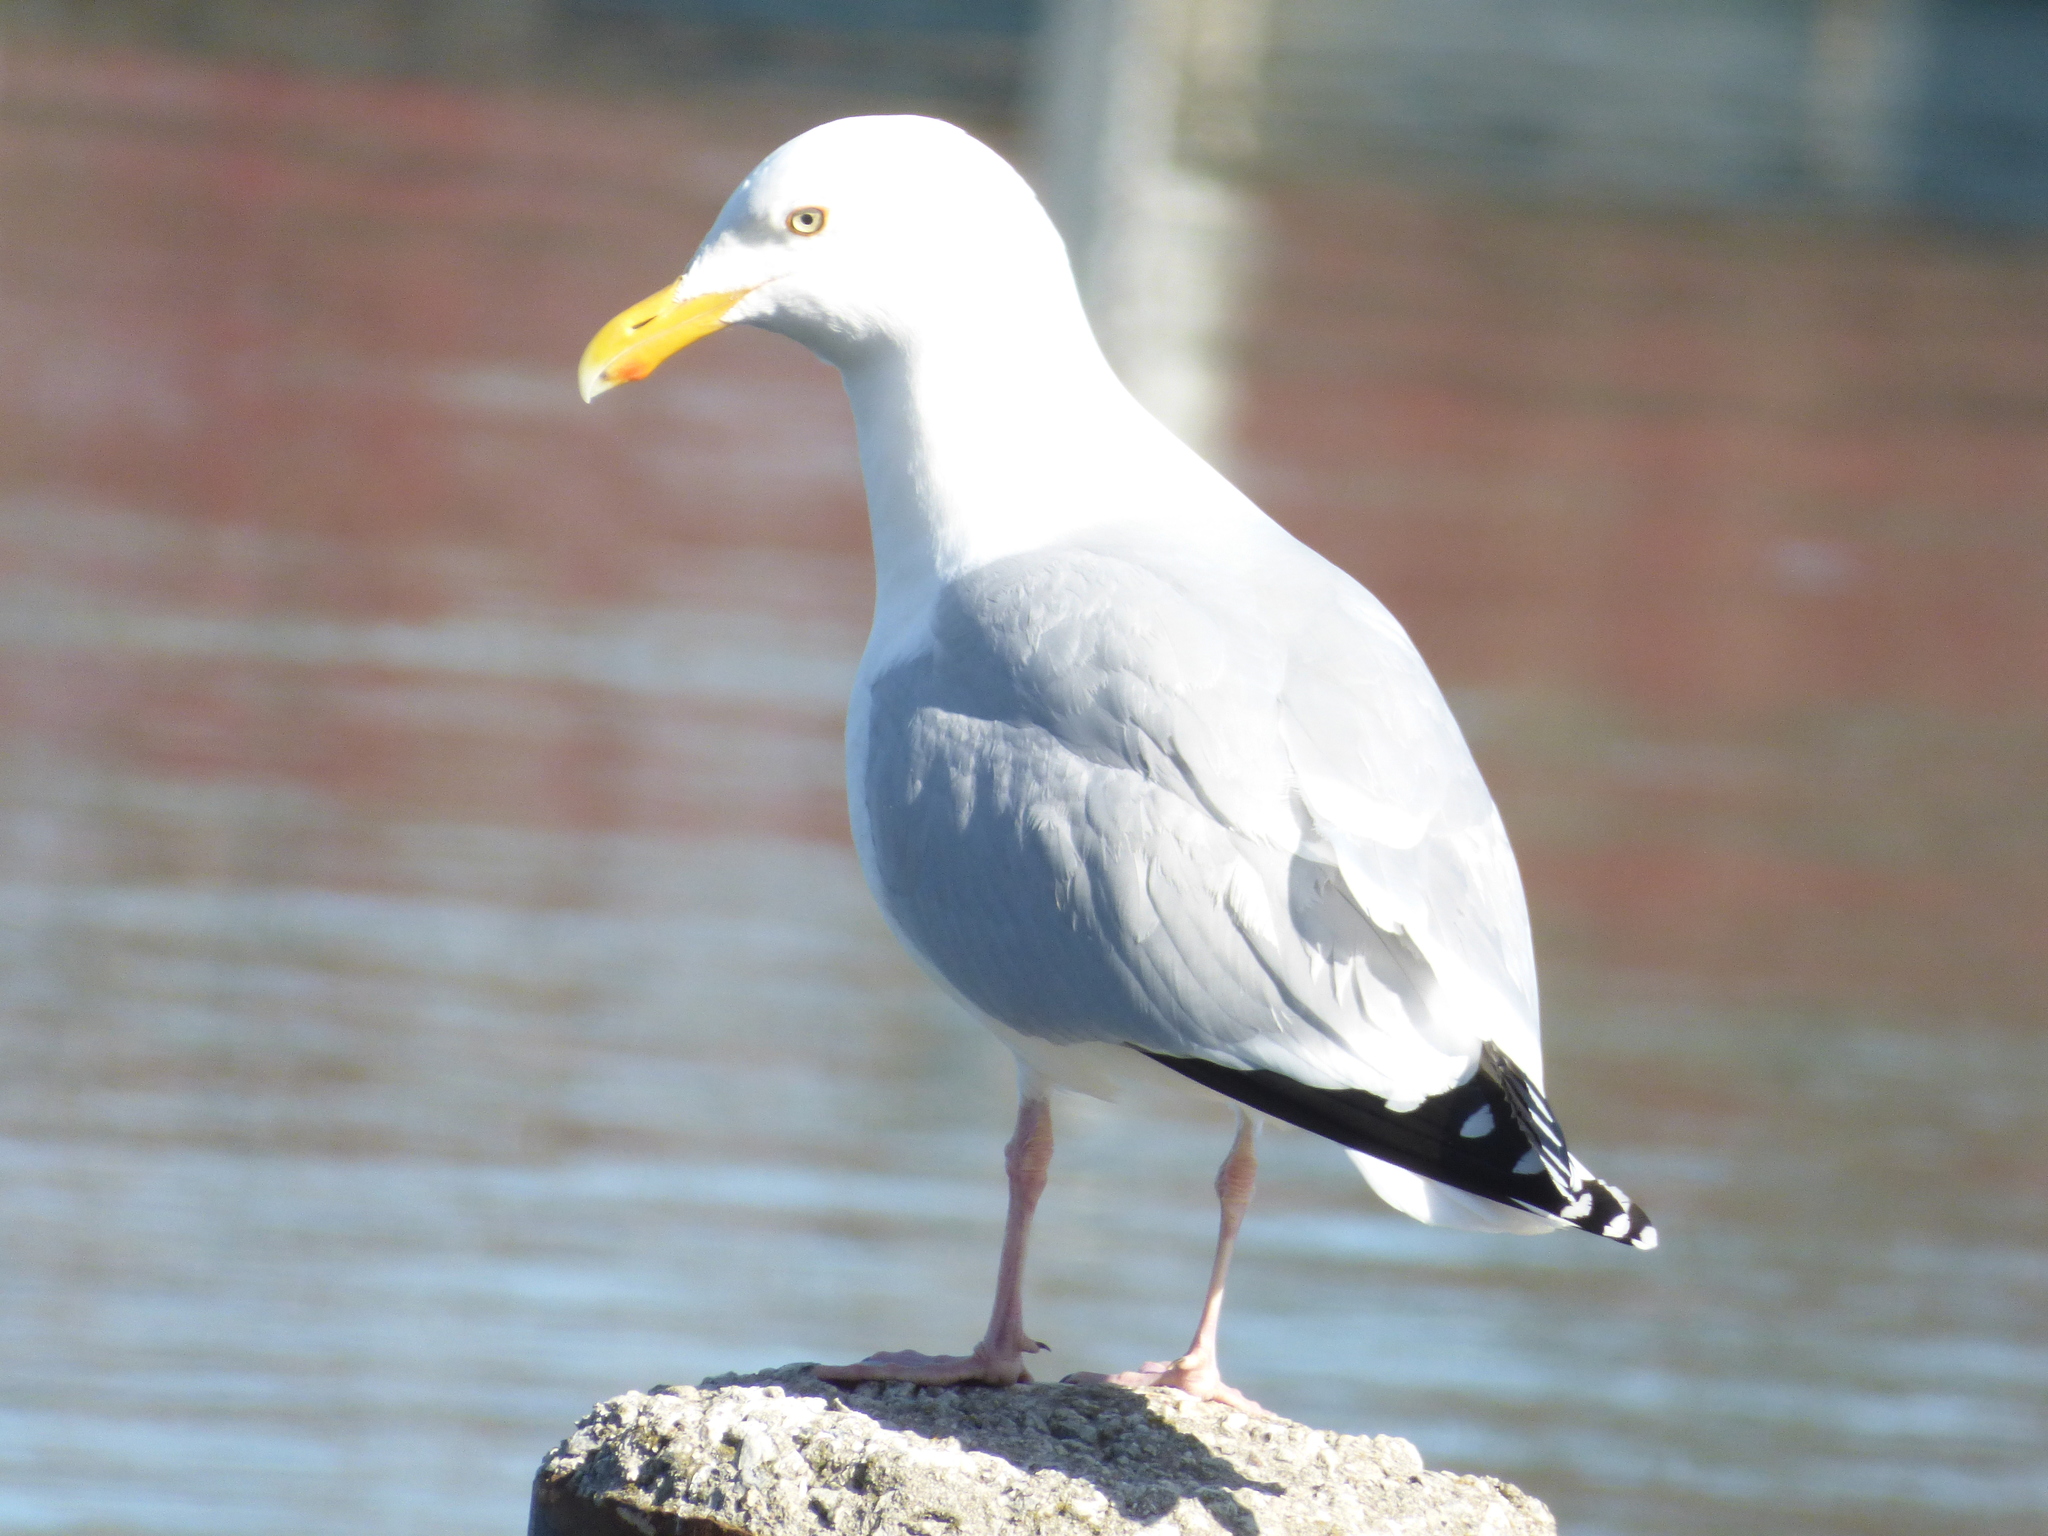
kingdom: Animalia
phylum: Chordata
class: Aves
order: Charadriiformes
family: Laridae
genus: Larus
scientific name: Larus argentatus
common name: Herring gull
